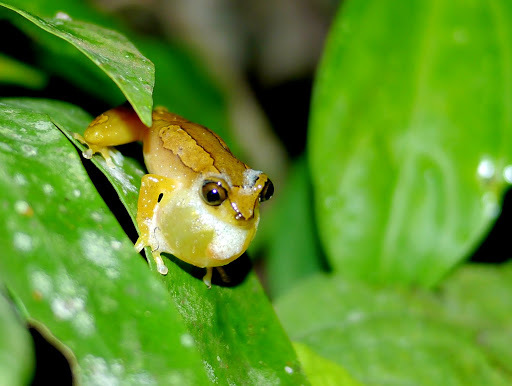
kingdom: Animalia
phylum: Chordata
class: Amphibia
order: Anura
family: Hyperoliidae
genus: Afrixalus
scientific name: Afrixalus paradorsalis
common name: Foulassi banana frog
